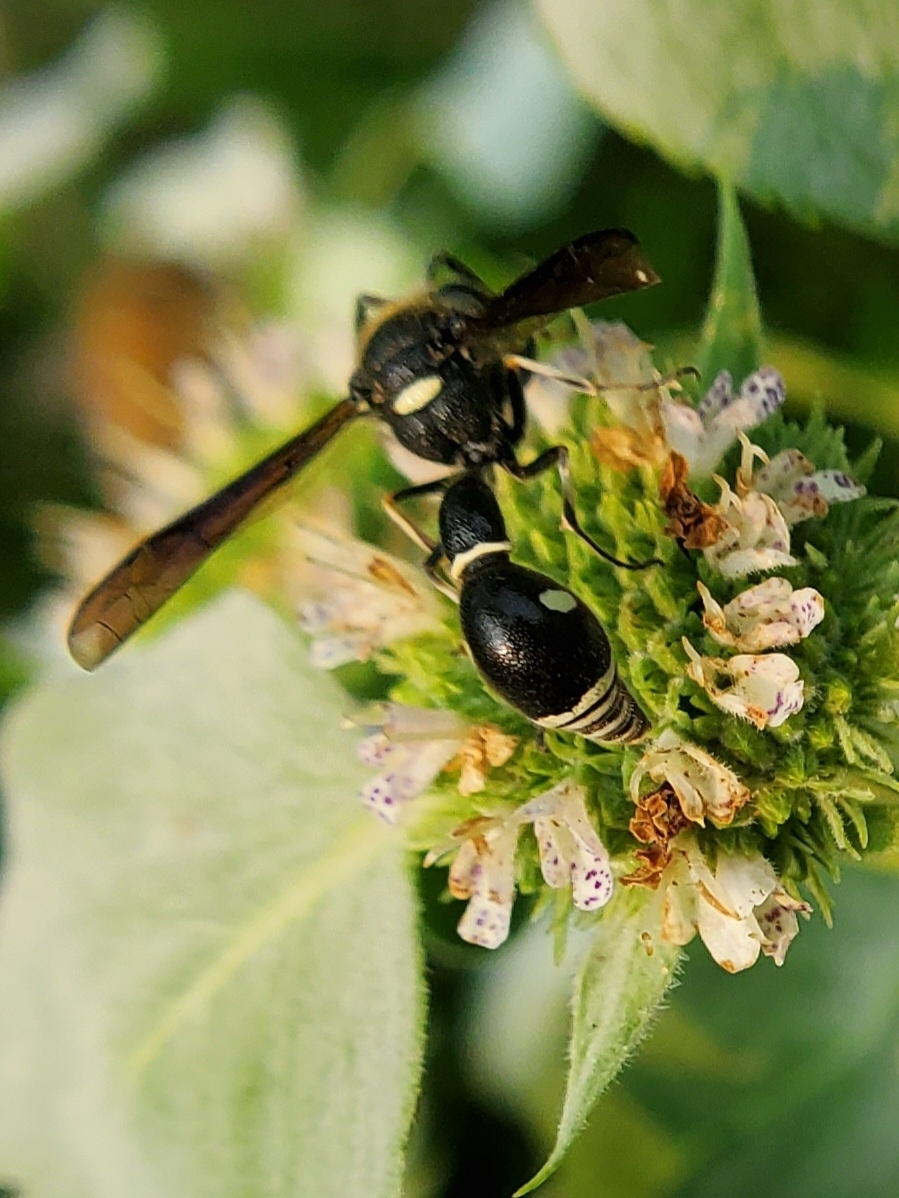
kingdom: Animalia
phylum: Arthropoda
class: Insecta
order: Hymenoptera
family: Vespidae
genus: Eumenes
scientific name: Eumenes fraternus
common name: Fraternal potter wasp
